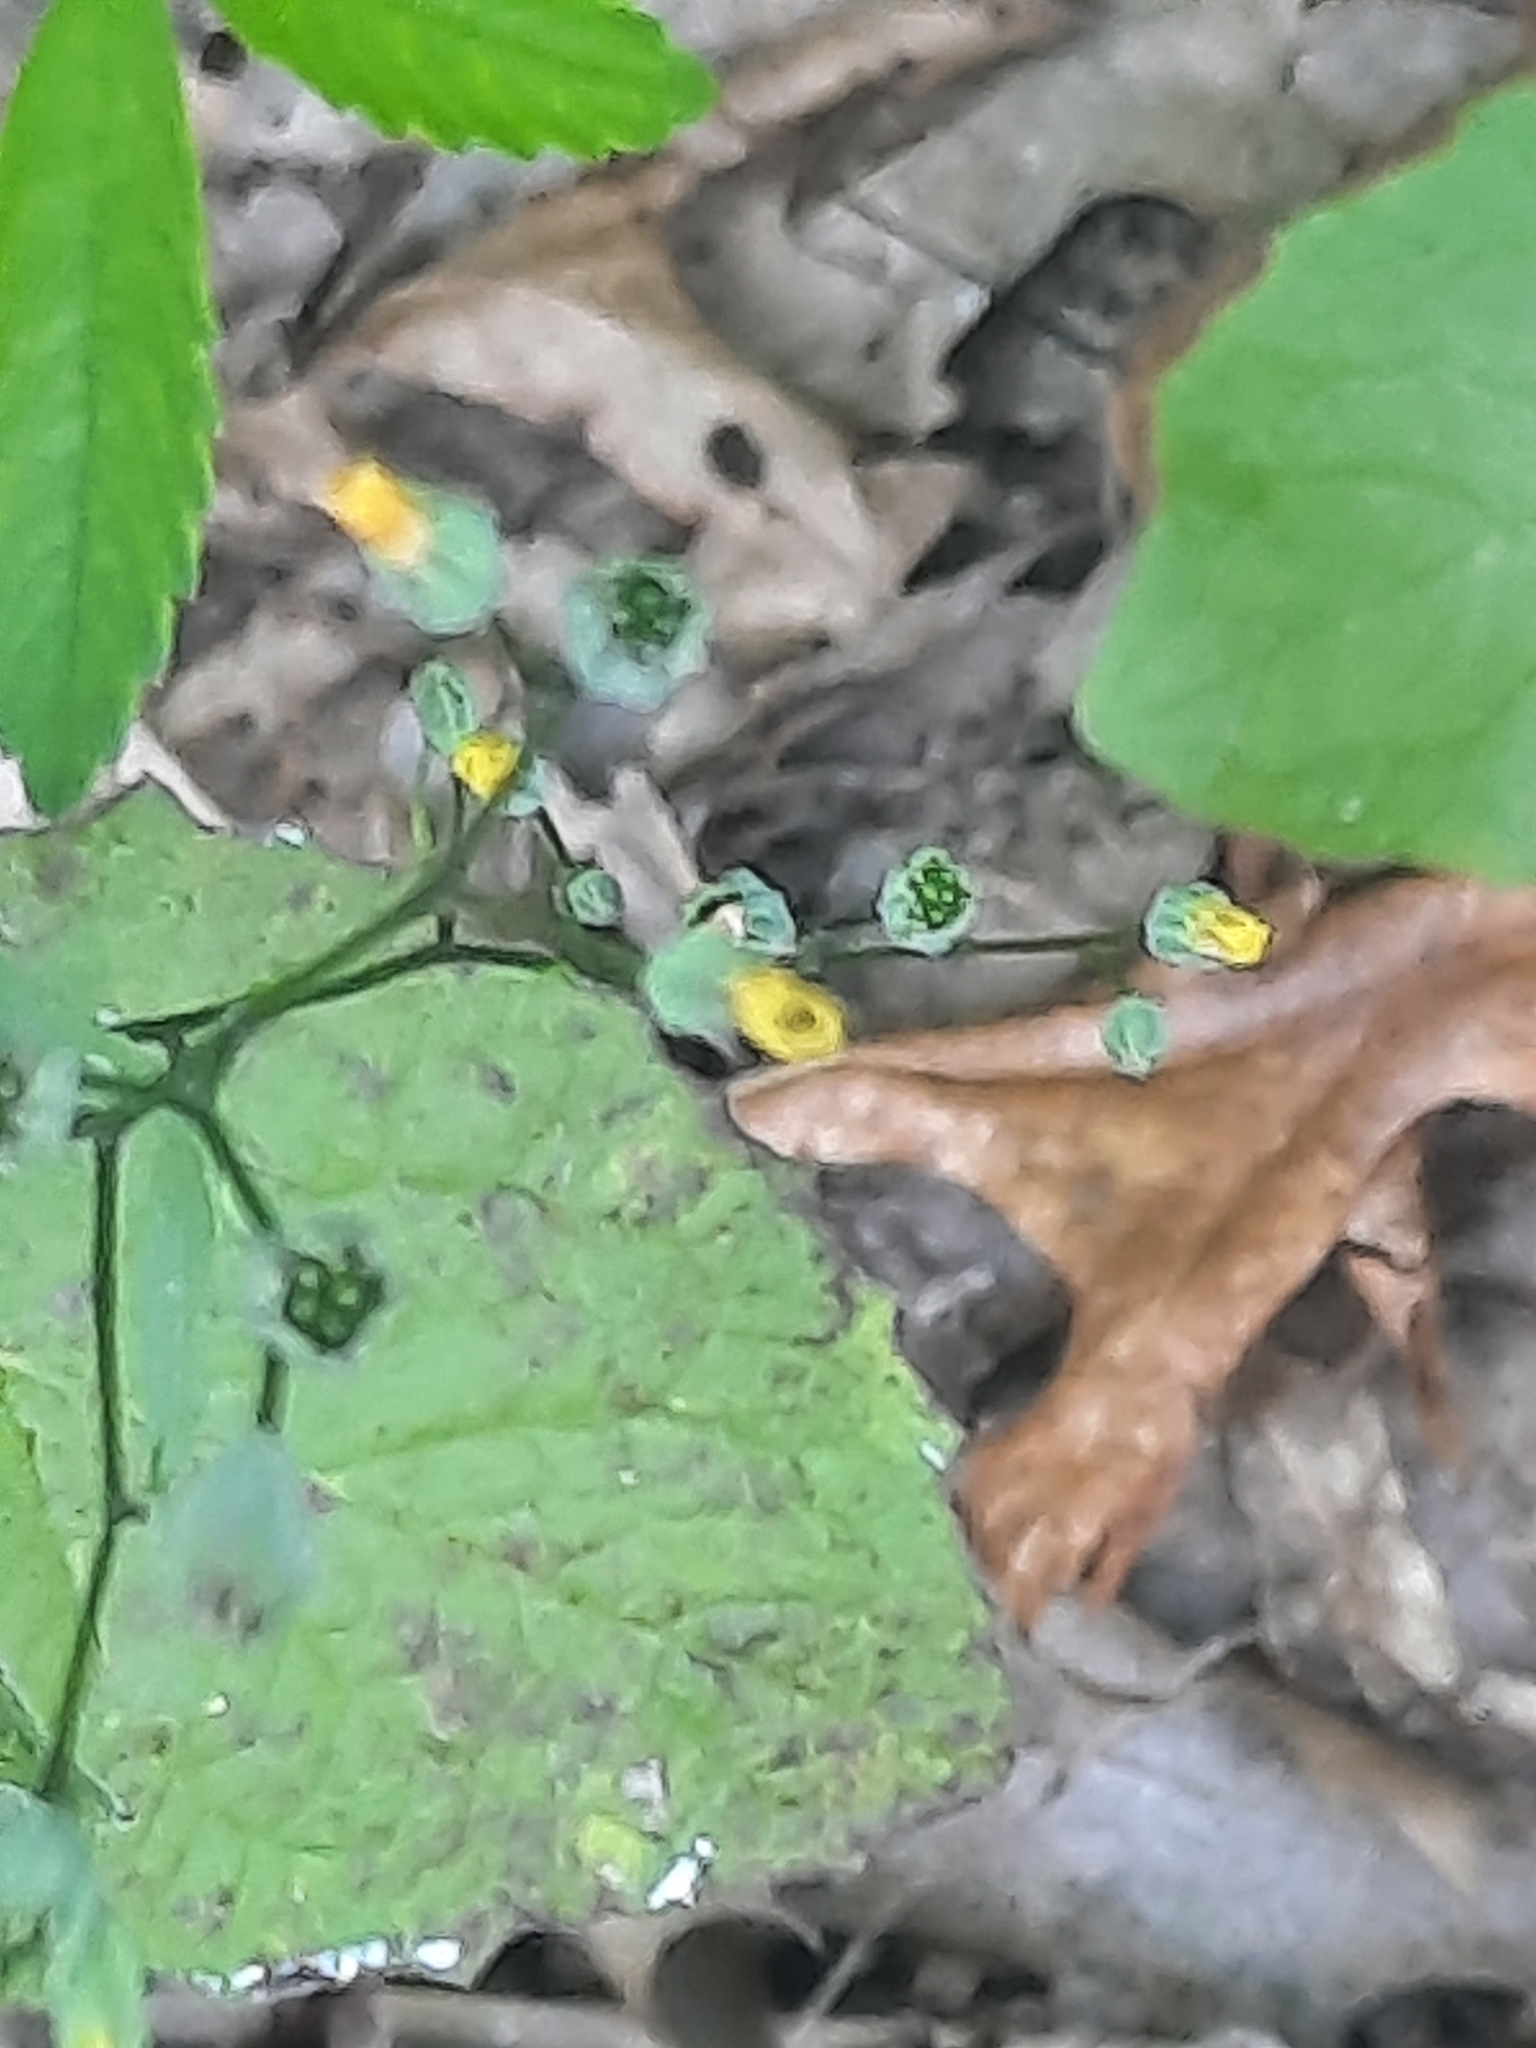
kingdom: Plantae
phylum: Tracheophyta
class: Magnoliopsida
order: Asterales
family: Asteraceae
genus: Lapsana
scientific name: Lapsana communis
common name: Nipplewort
